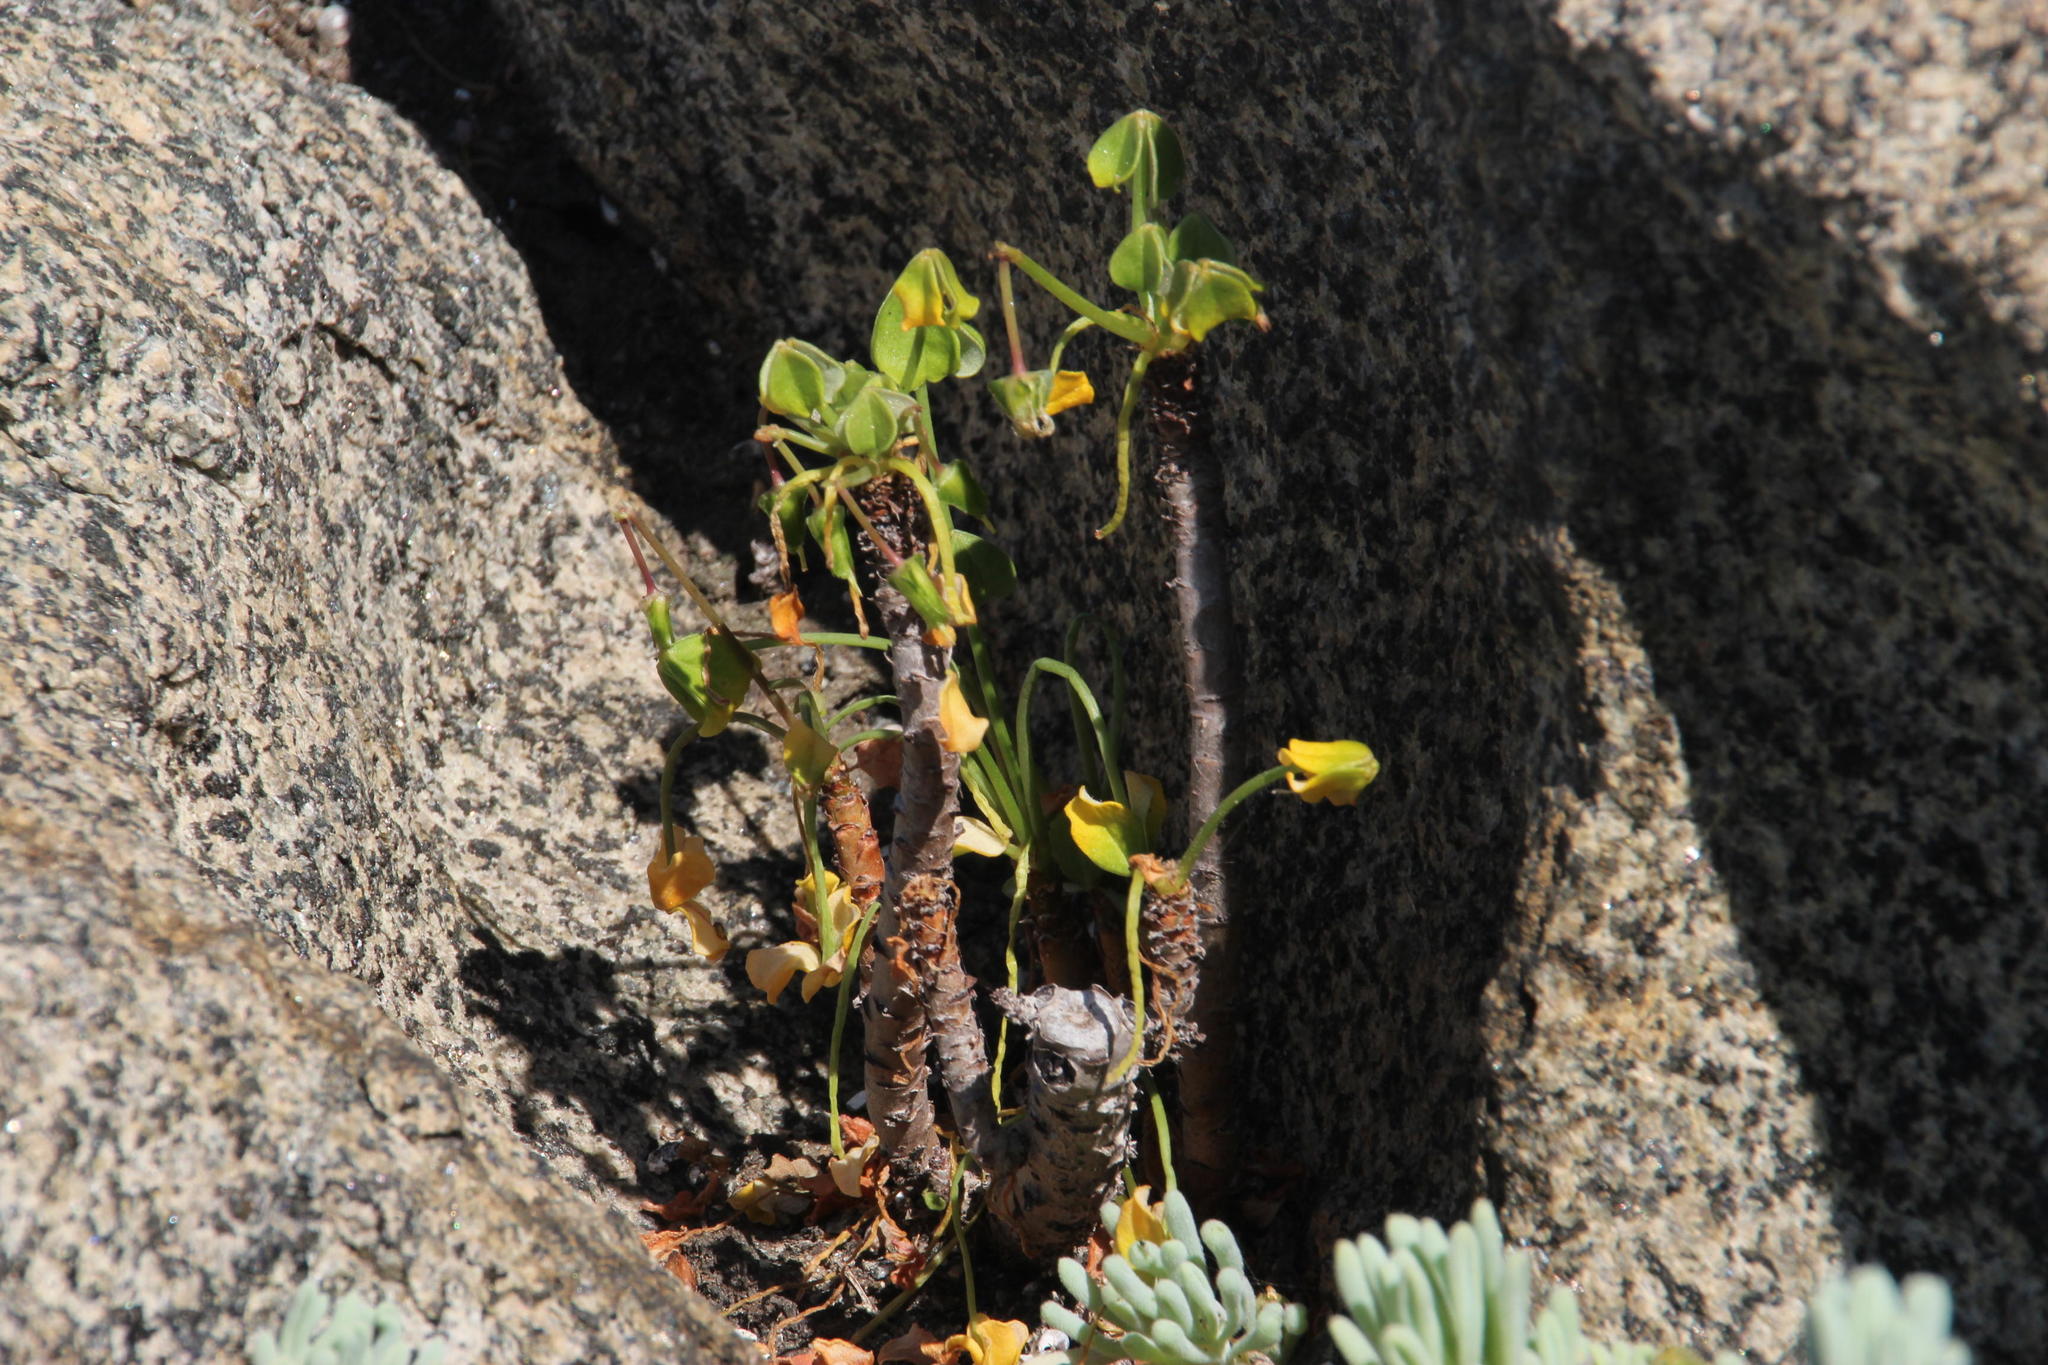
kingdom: Plantae
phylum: Tracheophyta
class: Magnoliopsida
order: Oxalidales
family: Oxalidaceae
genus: Oxalis
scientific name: Oxalis megalorrhiza
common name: Fleshy yellow-sorrel
